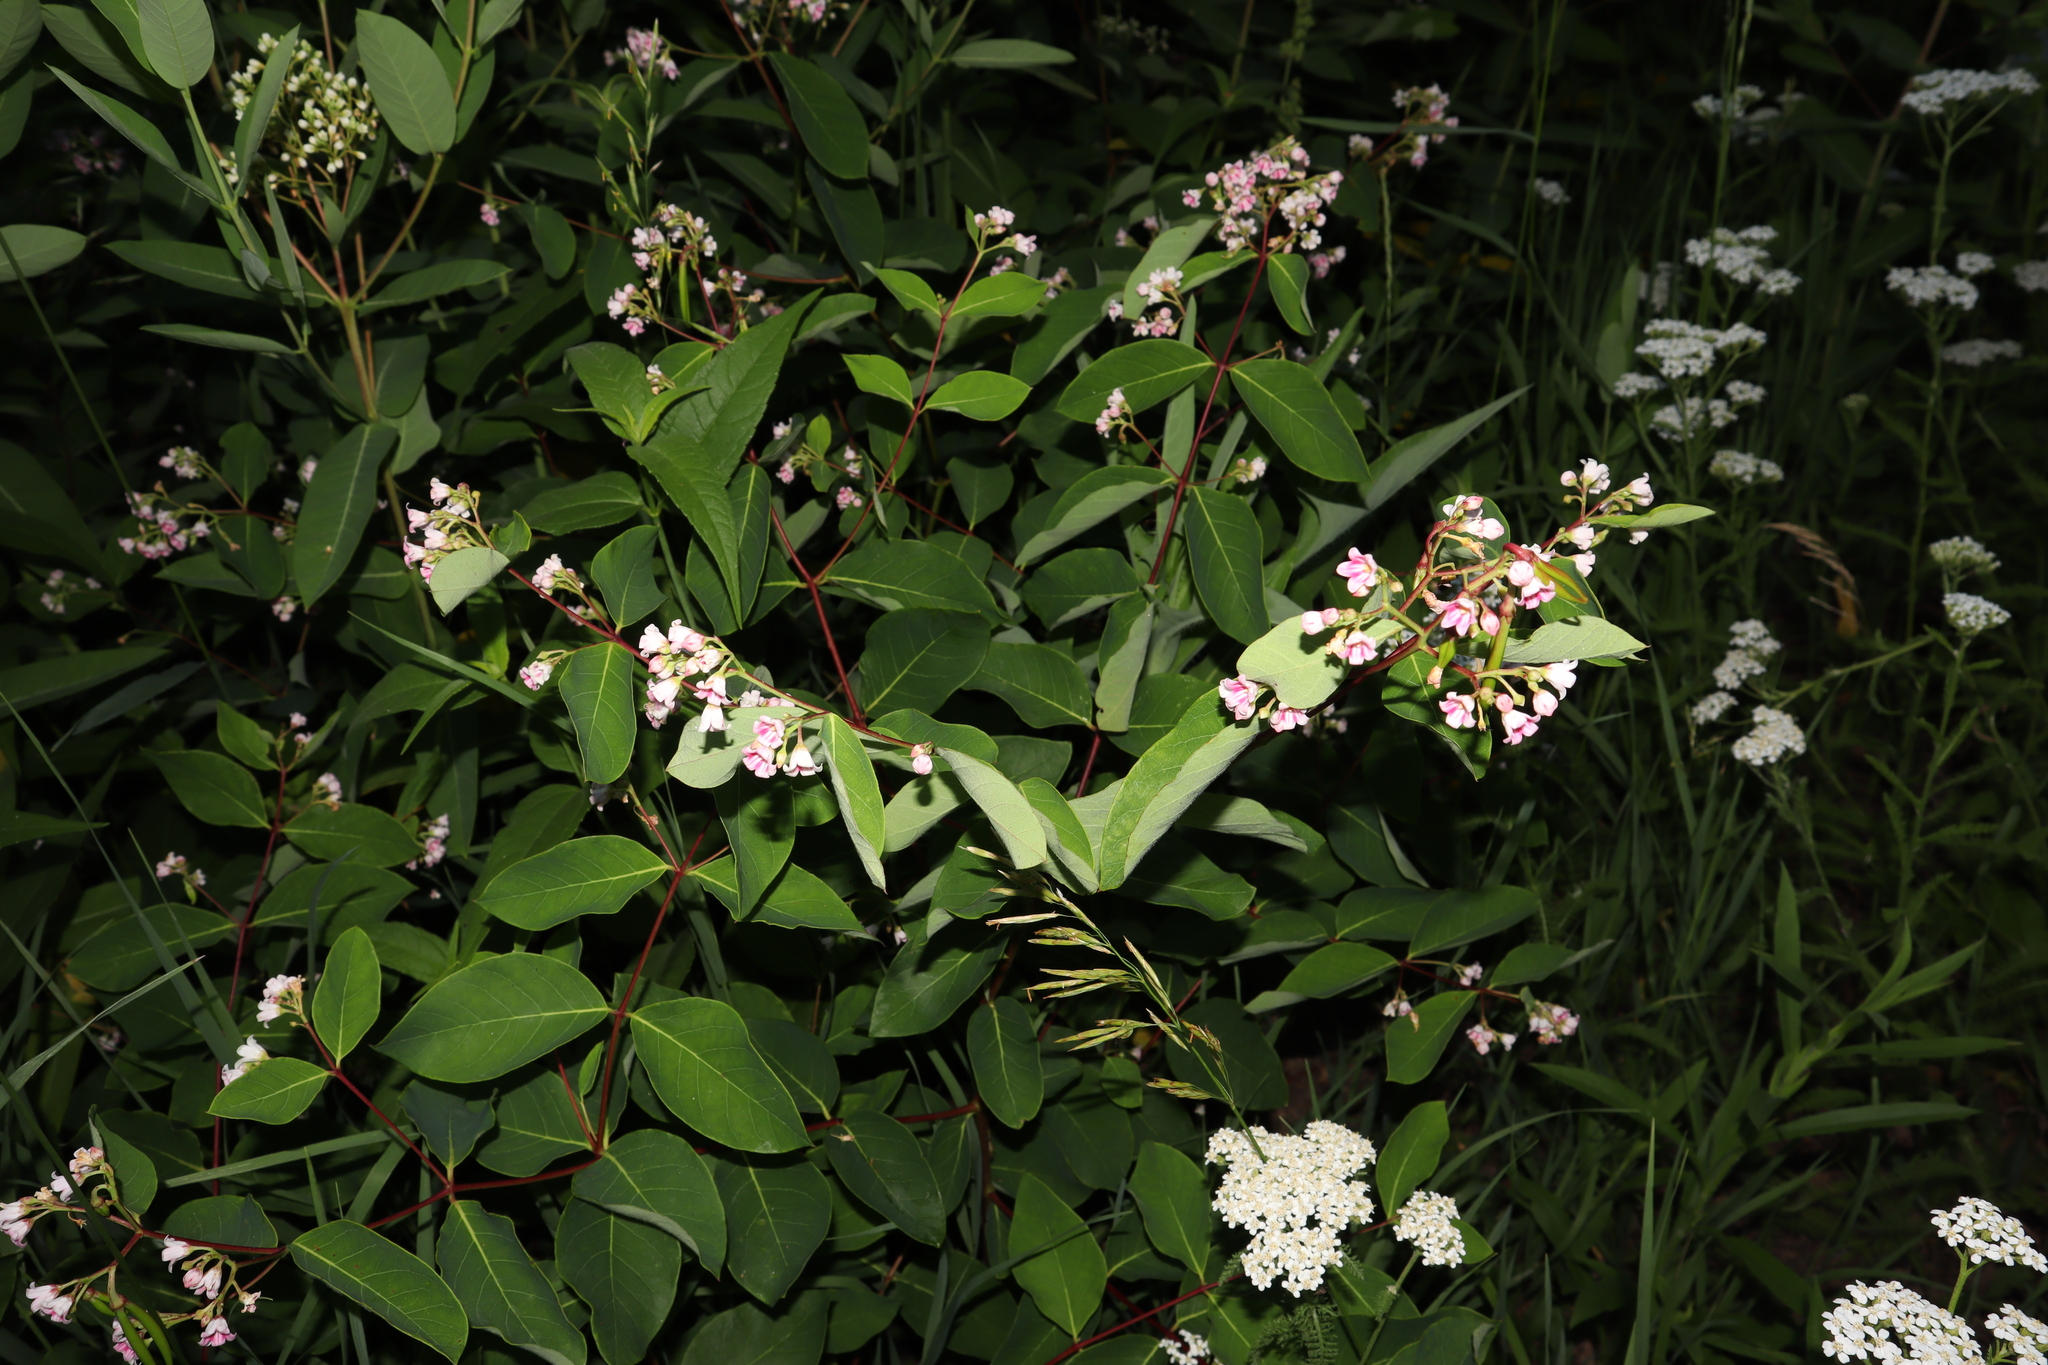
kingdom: Plantae
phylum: Tracheophyta
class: Magnoliopsida
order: Gentianales
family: Apocynaceae
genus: Apocynum
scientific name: Apocynum androsaemifolium
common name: Spreading dogbane
